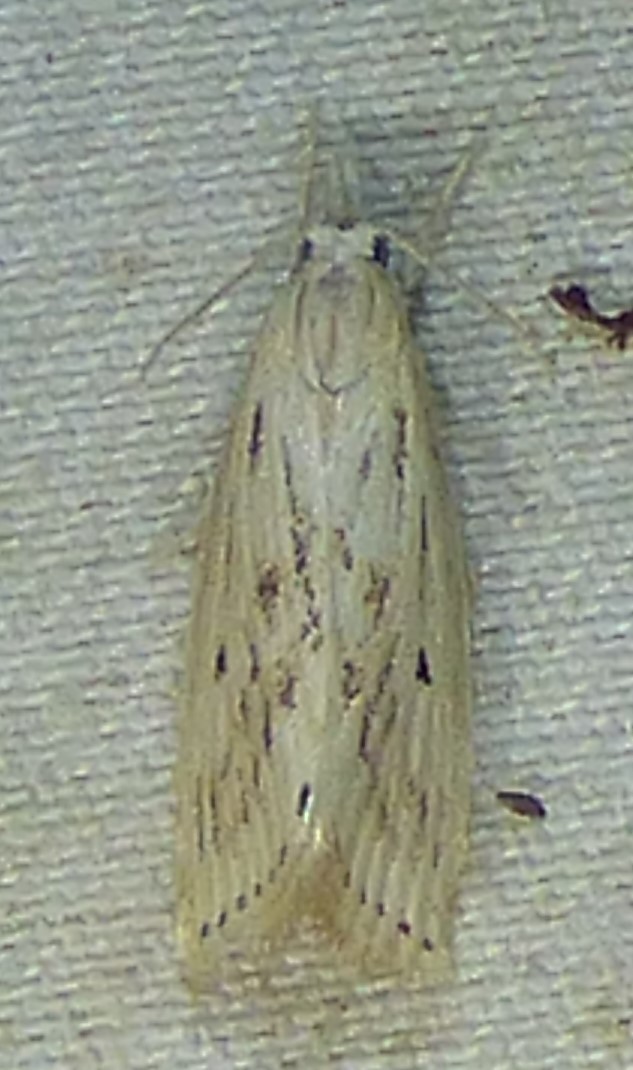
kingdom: Animalia
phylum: Arthropoda
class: Insecta
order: Lepidoptera
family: Crambidae
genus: Diatraea
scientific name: Diatraea lisetta
